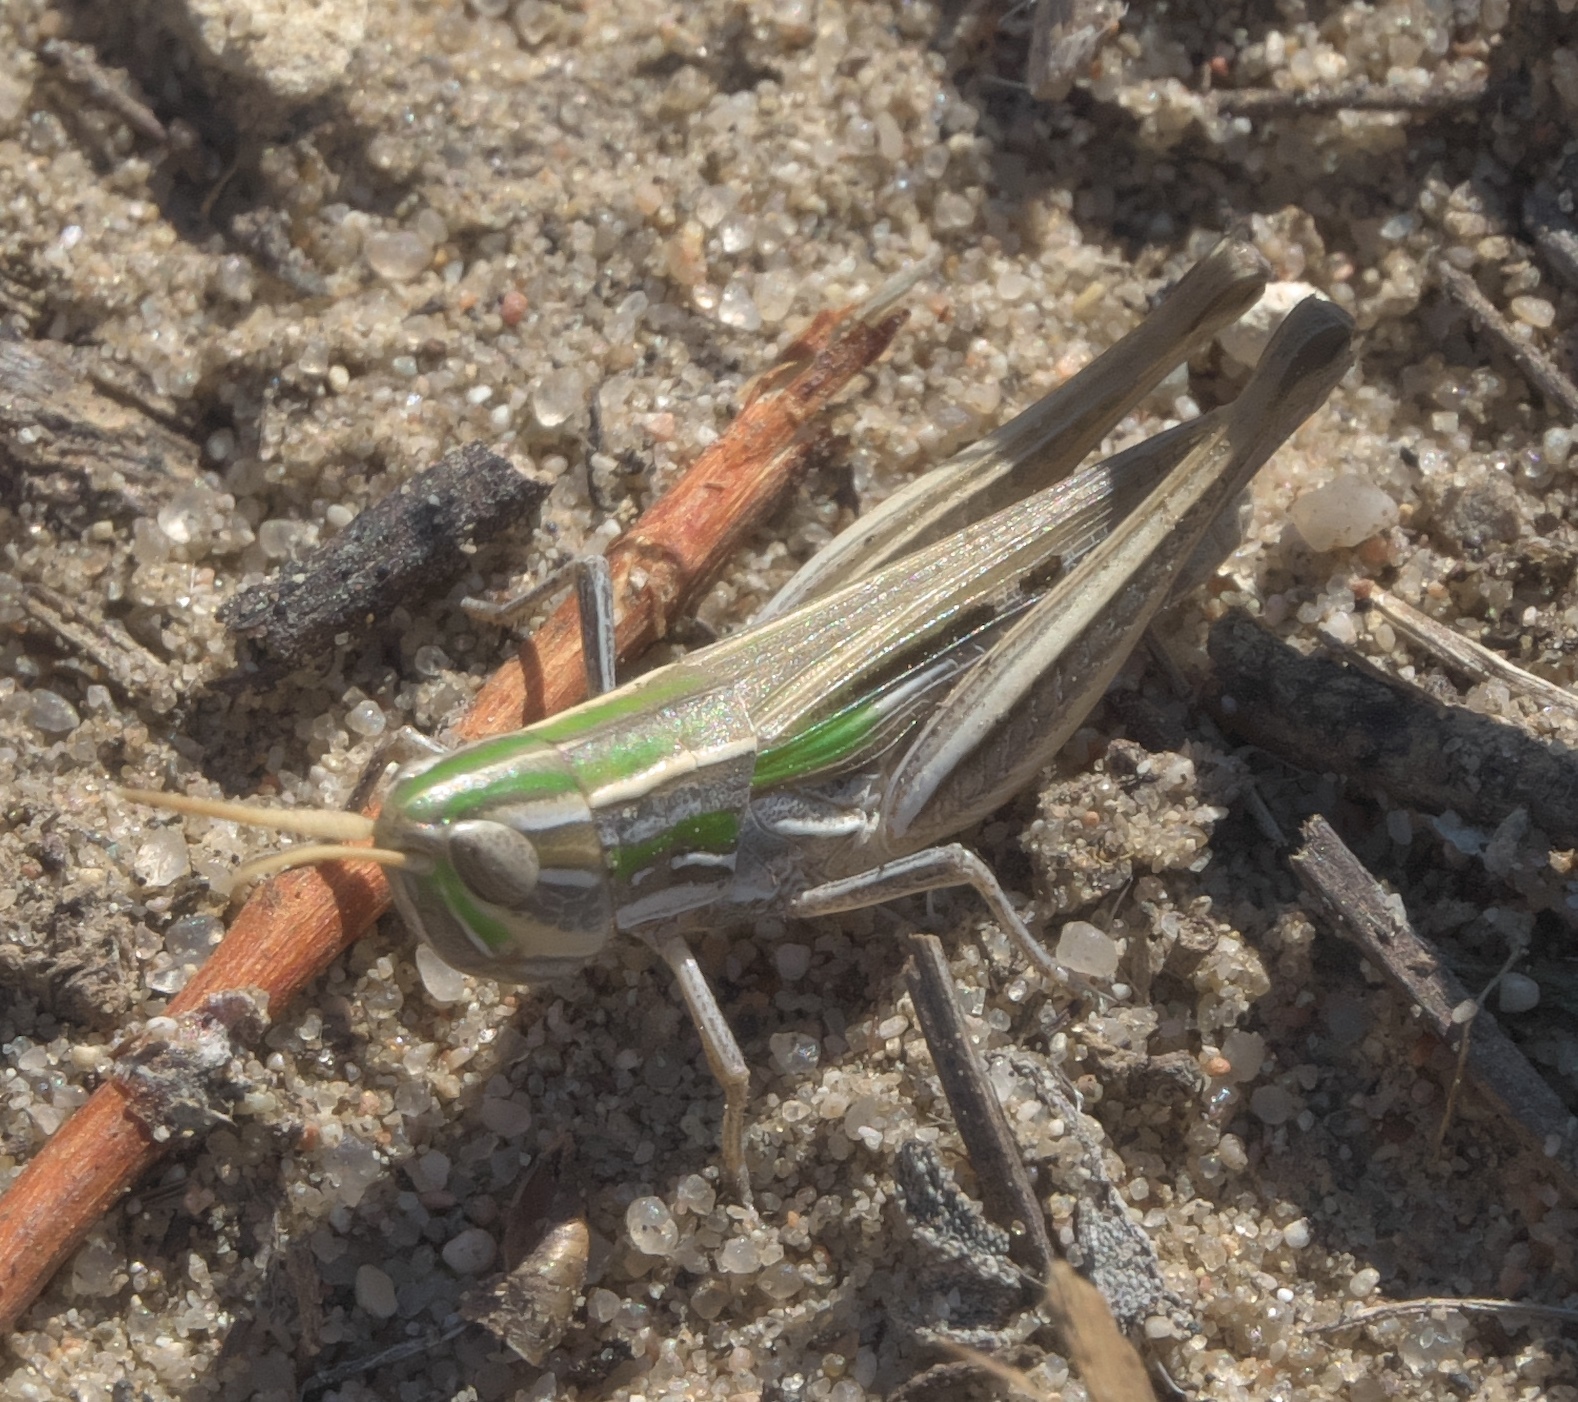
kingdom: Animalia
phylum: Arthropoda
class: Insecta
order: Orthoptera
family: Acrididae
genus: Opeia
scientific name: Opeia obscura
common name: Obscure grasshopper
